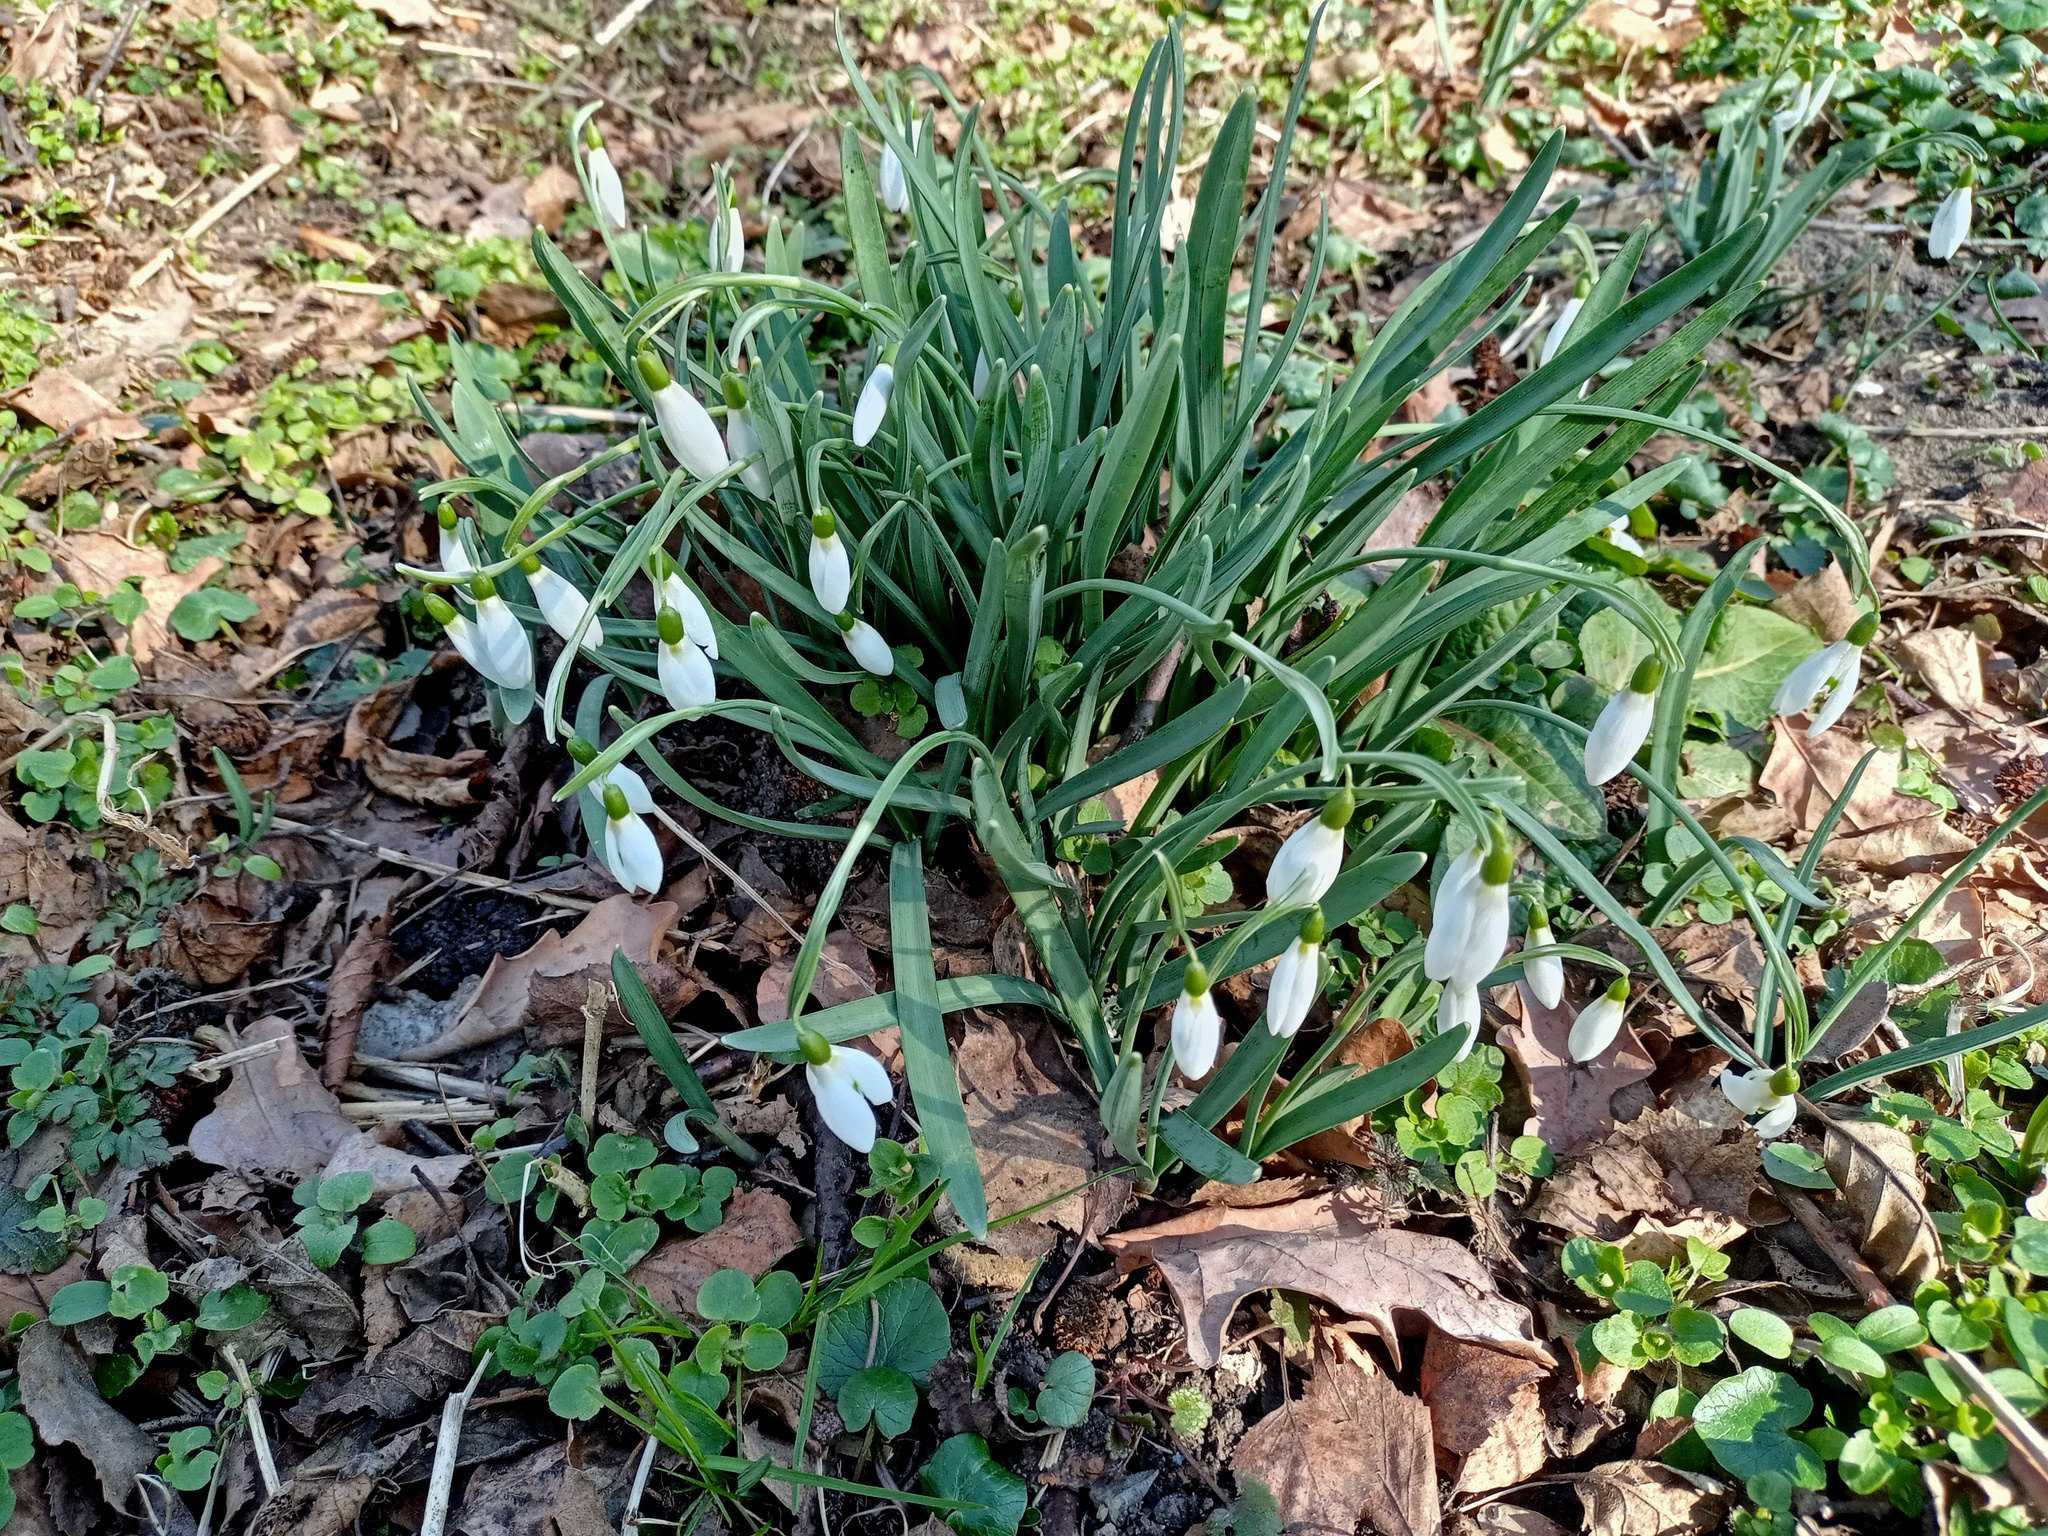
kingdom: Plantae
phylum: Tracheophyta
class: Liliopsida
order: Asparagales
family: Amaryllidaceae
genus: Galanthus
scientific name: Galanthus nivalis
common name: Snowdrop
